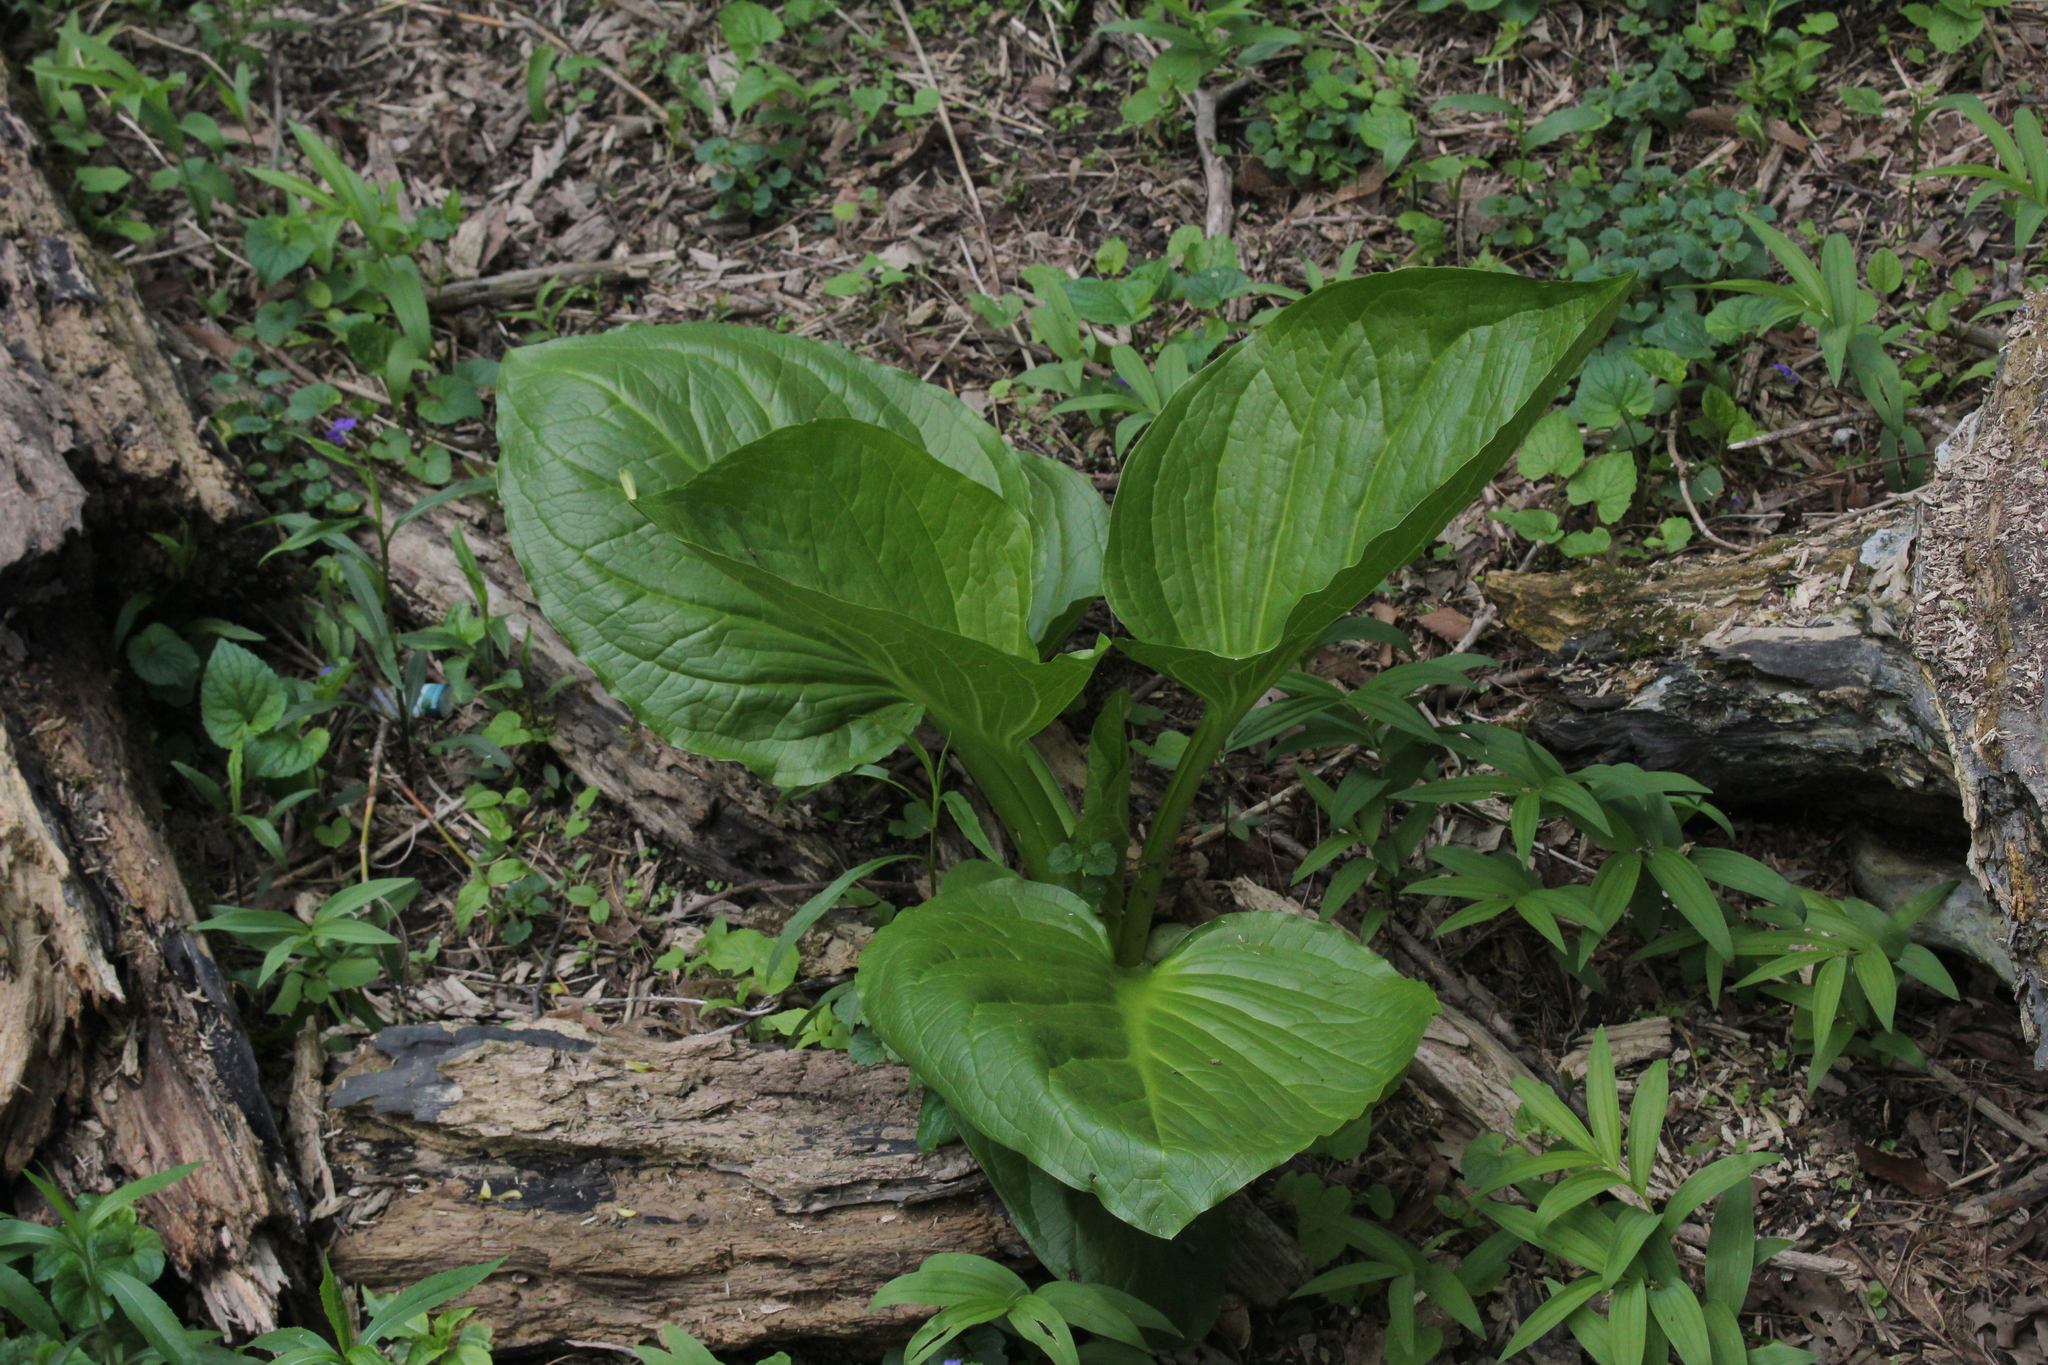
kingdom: Plantae
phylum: Tracheophyta
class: Liliopsida
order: Alismatales
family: Araceae
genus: Symplocarpus
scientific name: Symplocarpus foetidus
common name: Eastern skunk cabbage
